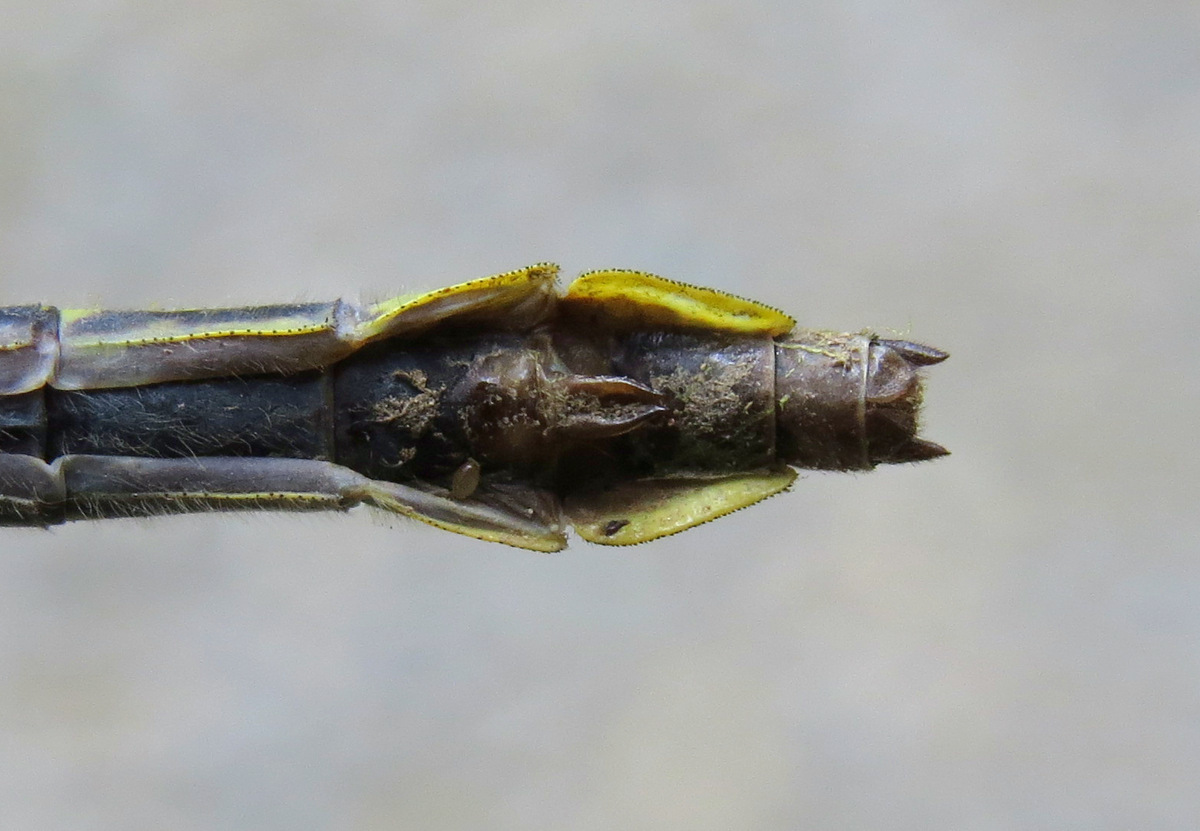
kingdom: Animalia
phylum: Arthropoda
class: Insecta
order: Odonata
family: Gomphidae
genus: Phanogomphus
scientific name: Phanogomphus borealis
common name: Beaverpond clubtail
